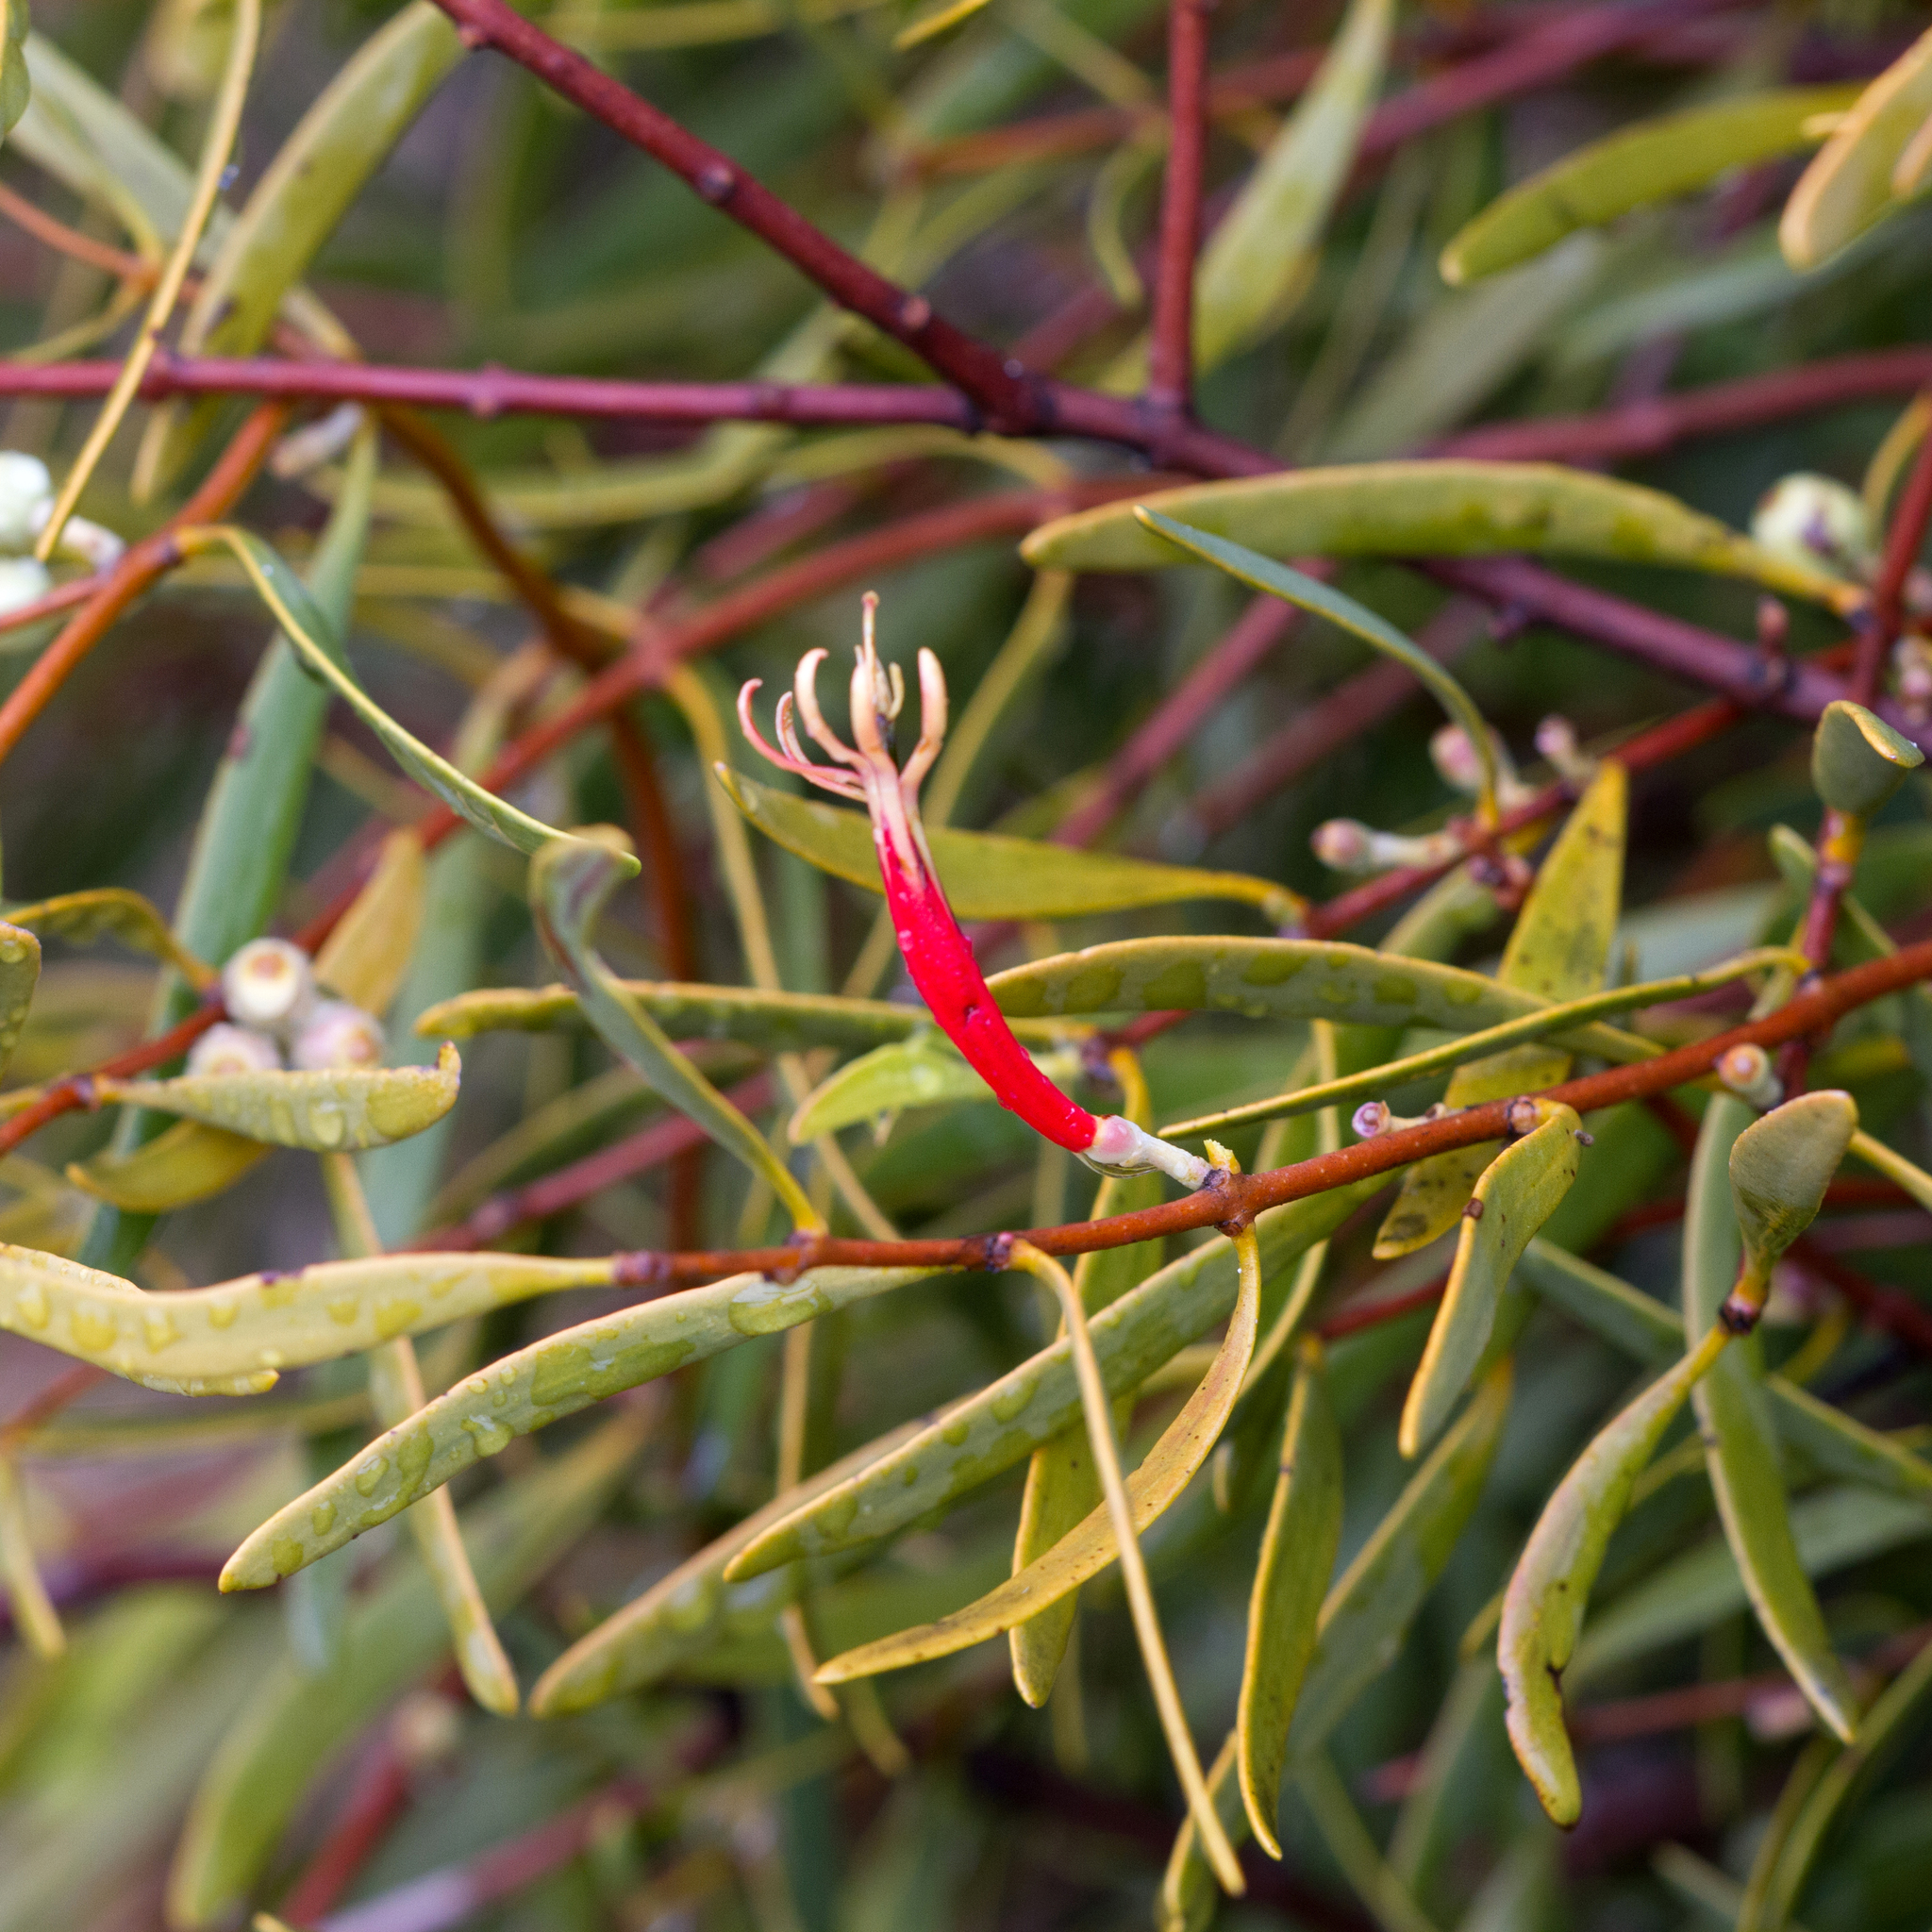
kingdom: Plantae
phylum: Tracheophyta
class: Magnoliopsida
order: Santalales
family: Loranthaceae
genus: Lysiana
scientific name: Lysiana exocarpi
